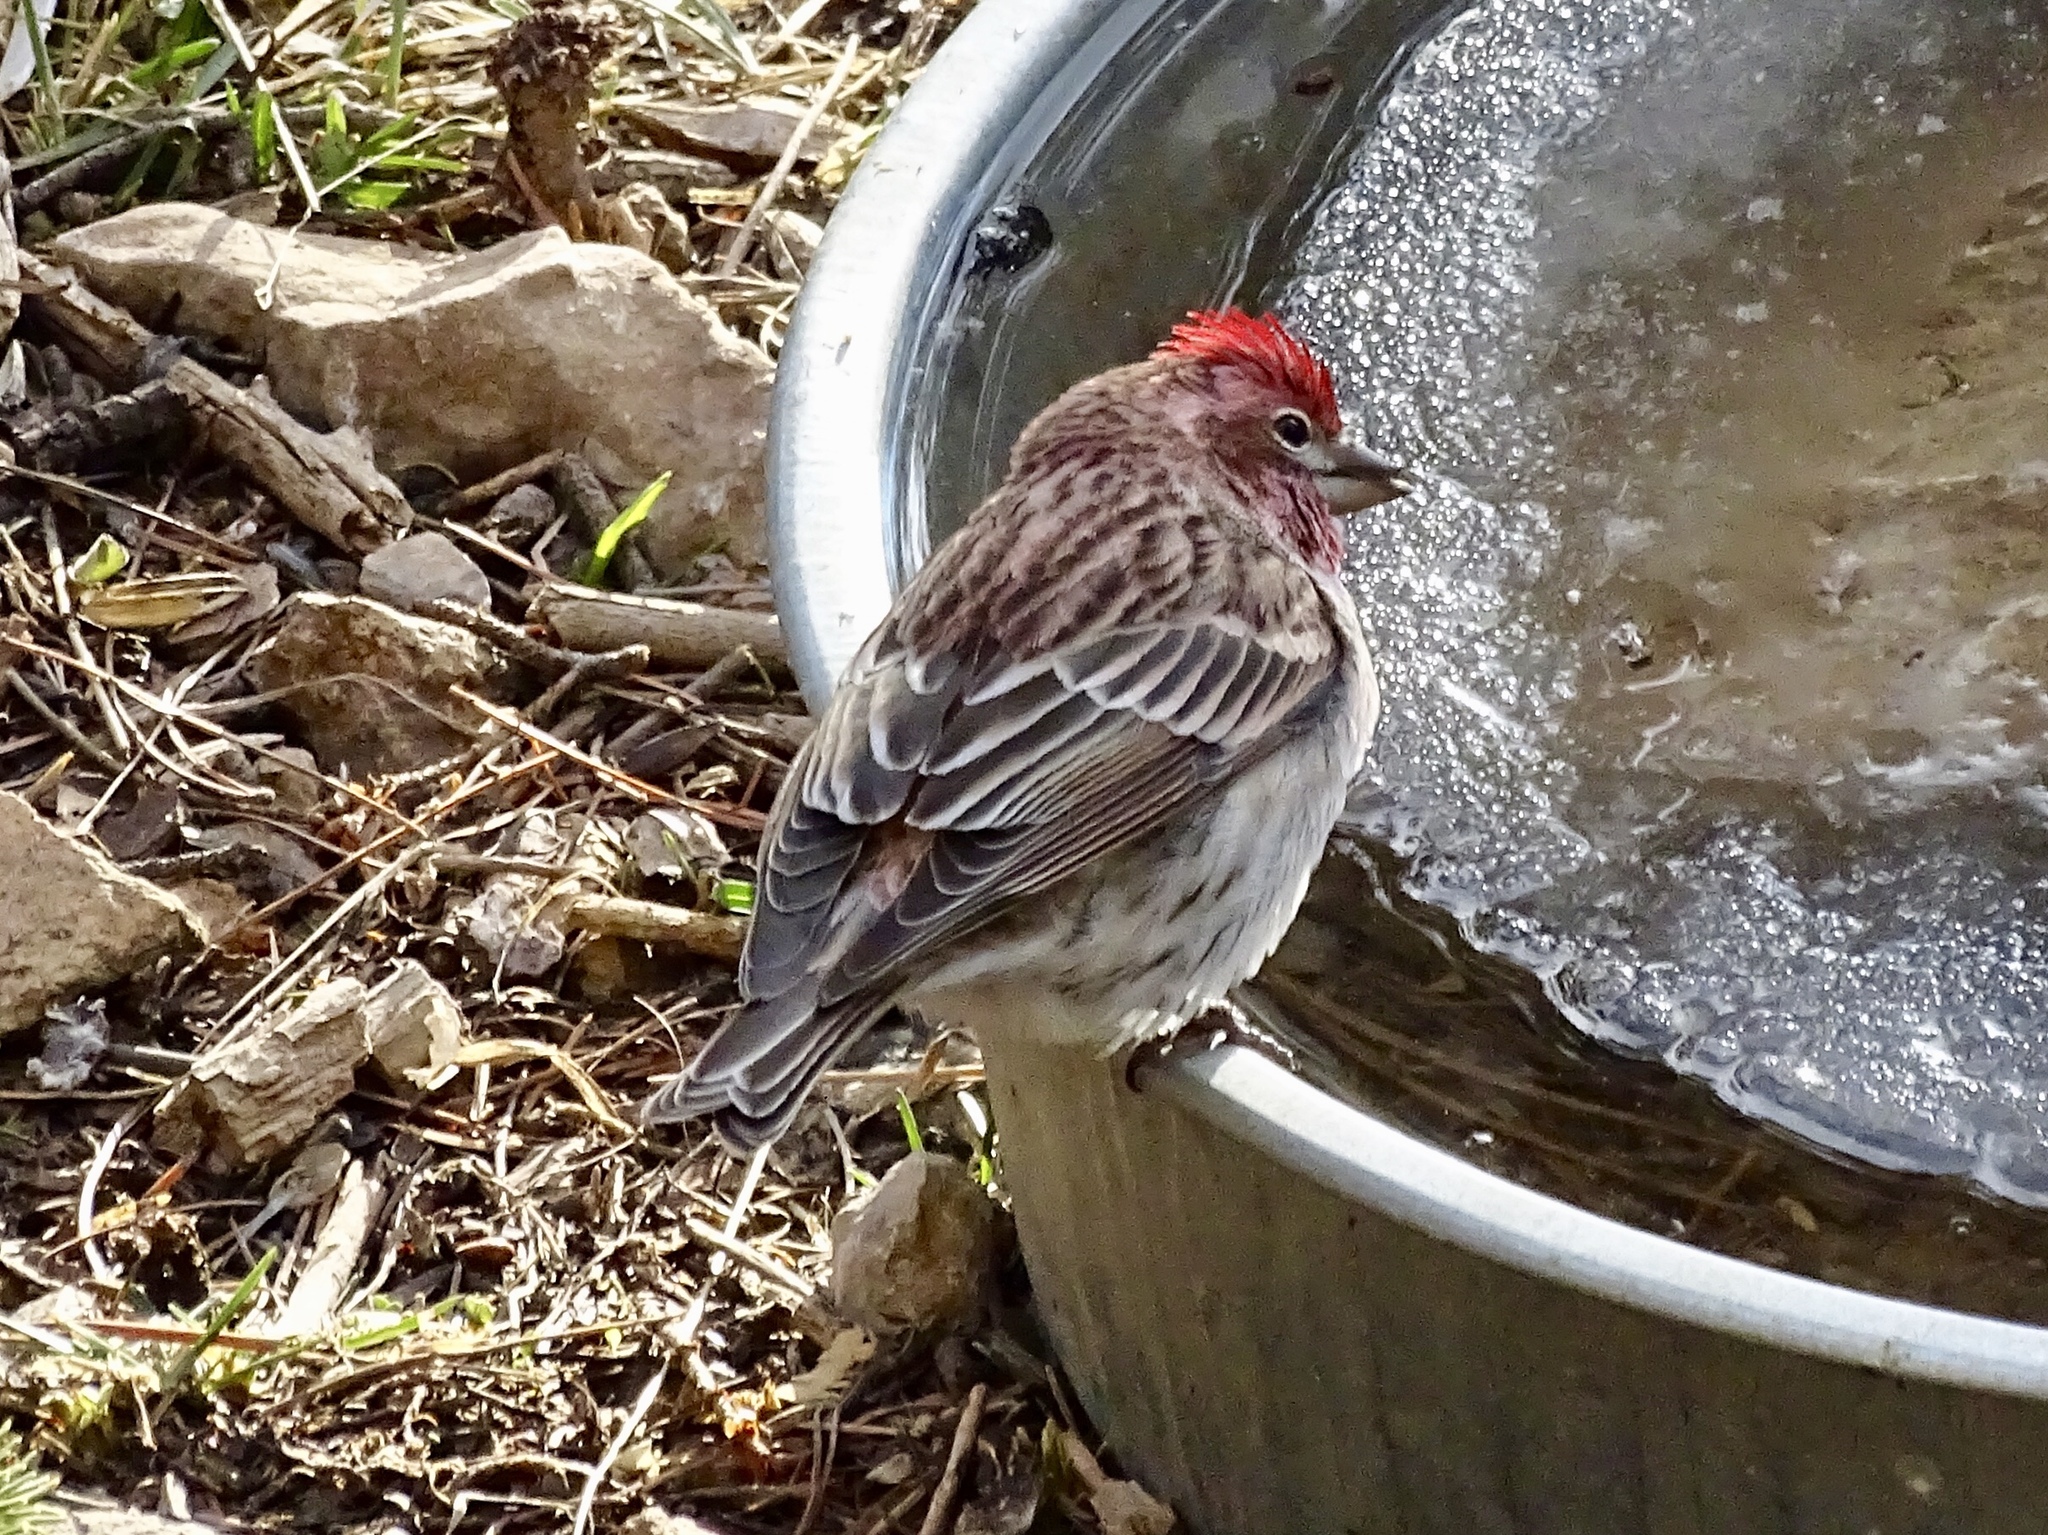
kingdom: Animalia
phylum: Chordata
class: Aves
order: Passeriformes
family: Fringillidae
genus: Haemorhous
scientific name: Haemorhous cassinii
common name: Cassin's finch
